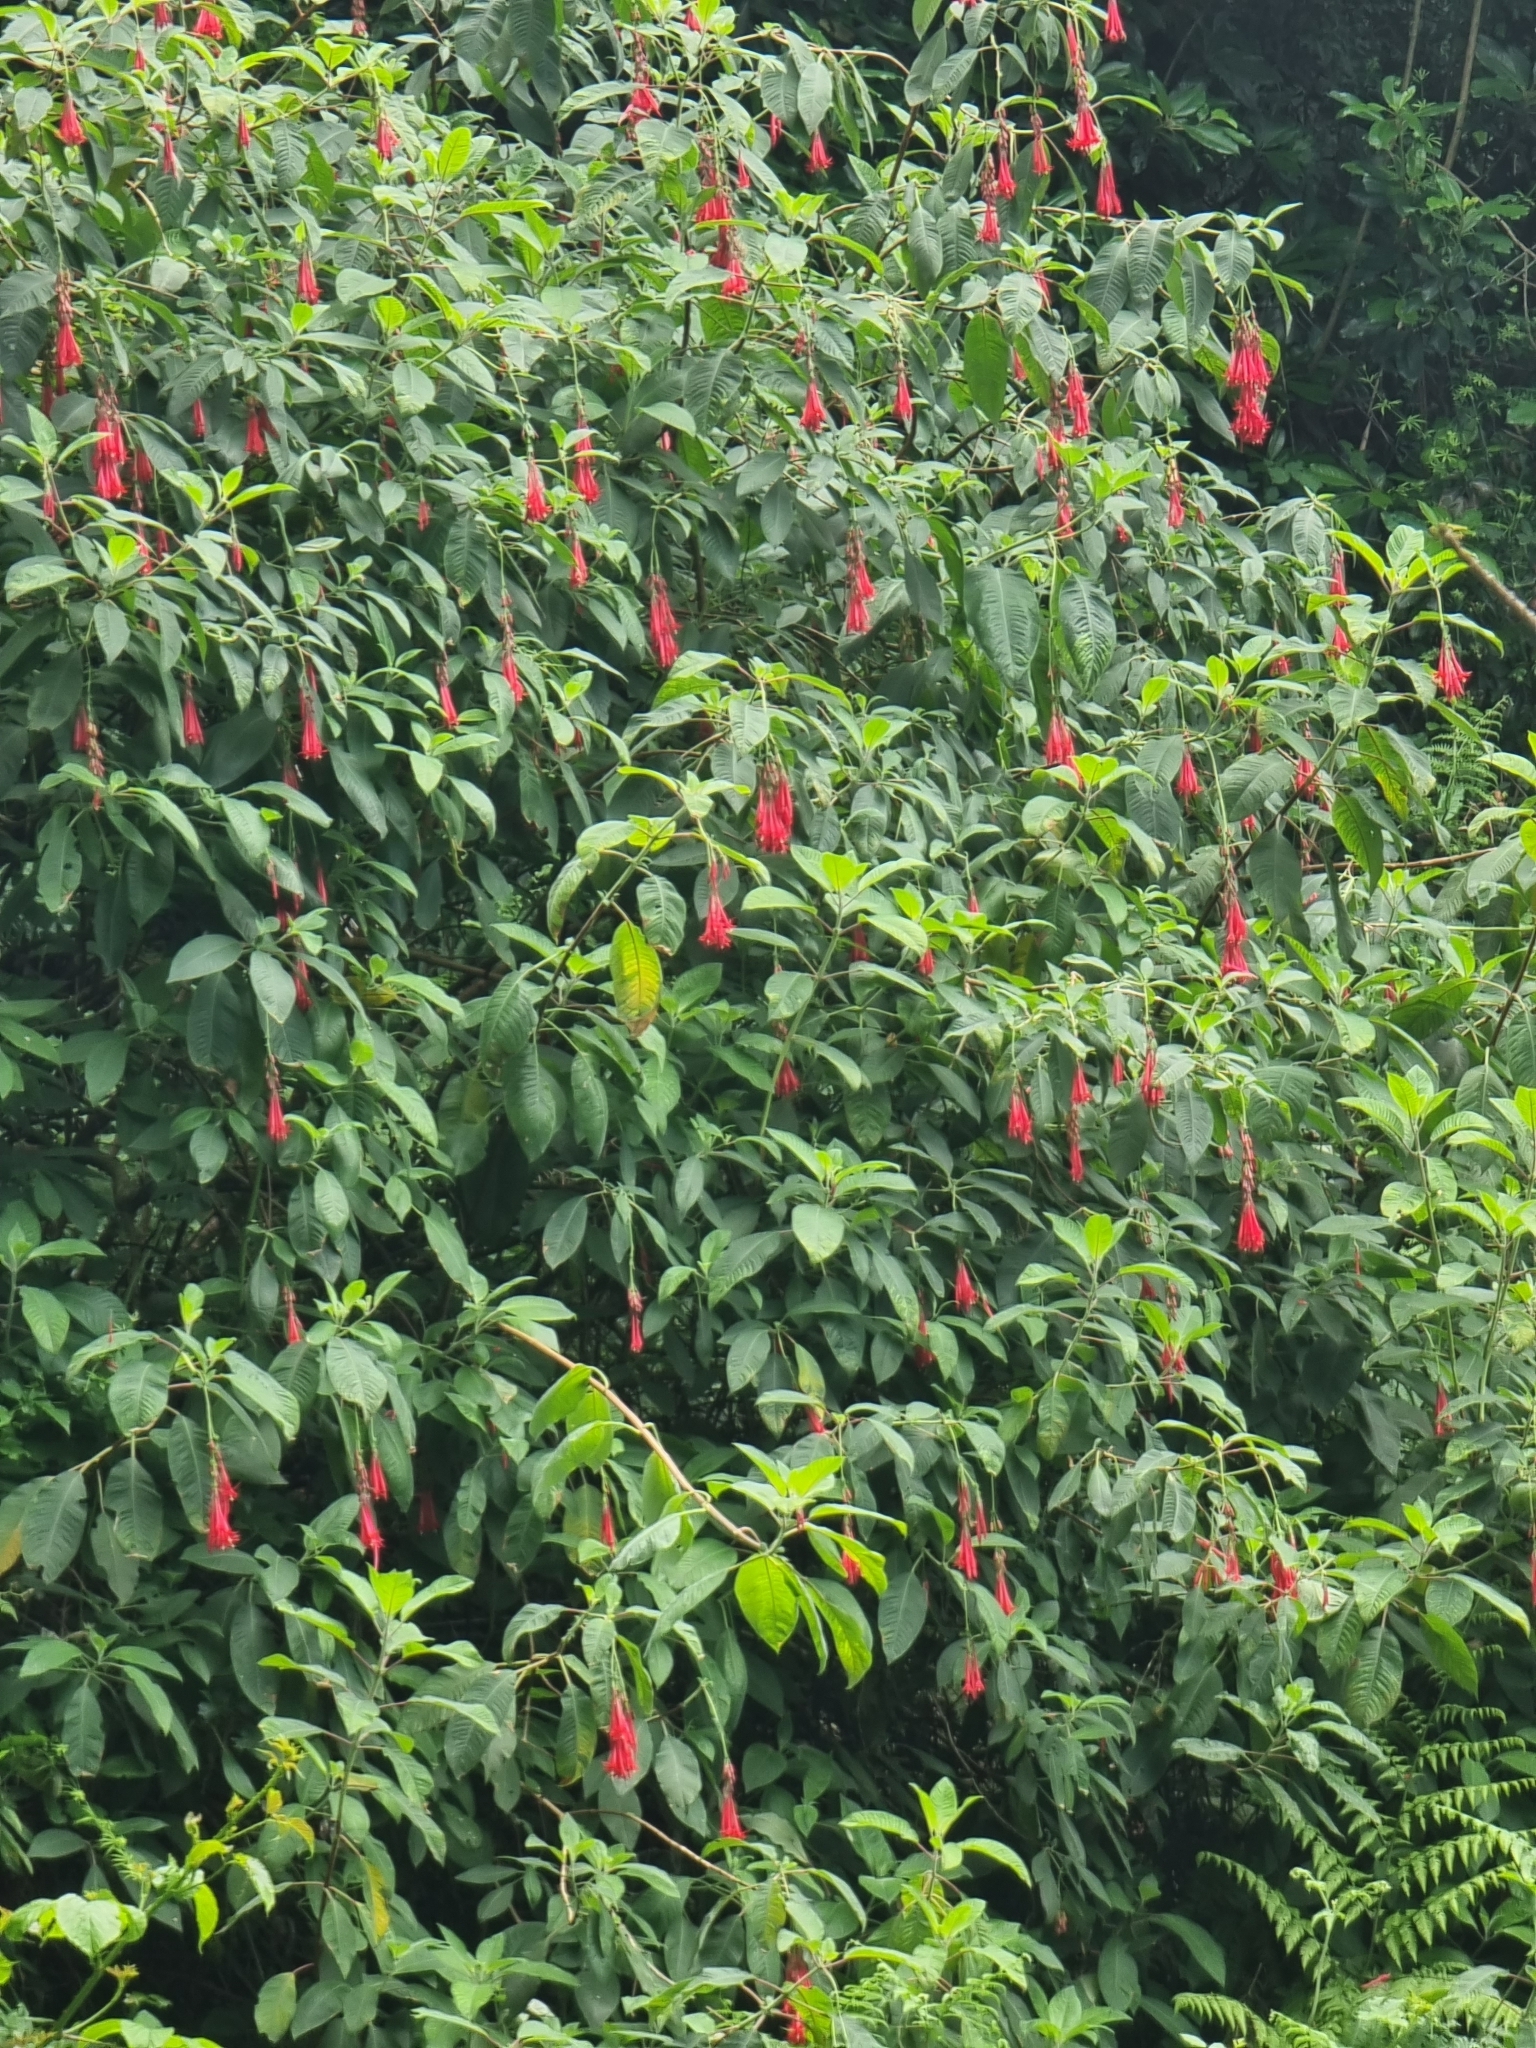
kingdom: Plantae
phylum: Tracheophyta
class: Magnoliopsida
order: Myrtales
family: Onagraceae
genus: Fuchsia
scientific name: Fuchsia boliviana
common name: Bolivian fuchsia
